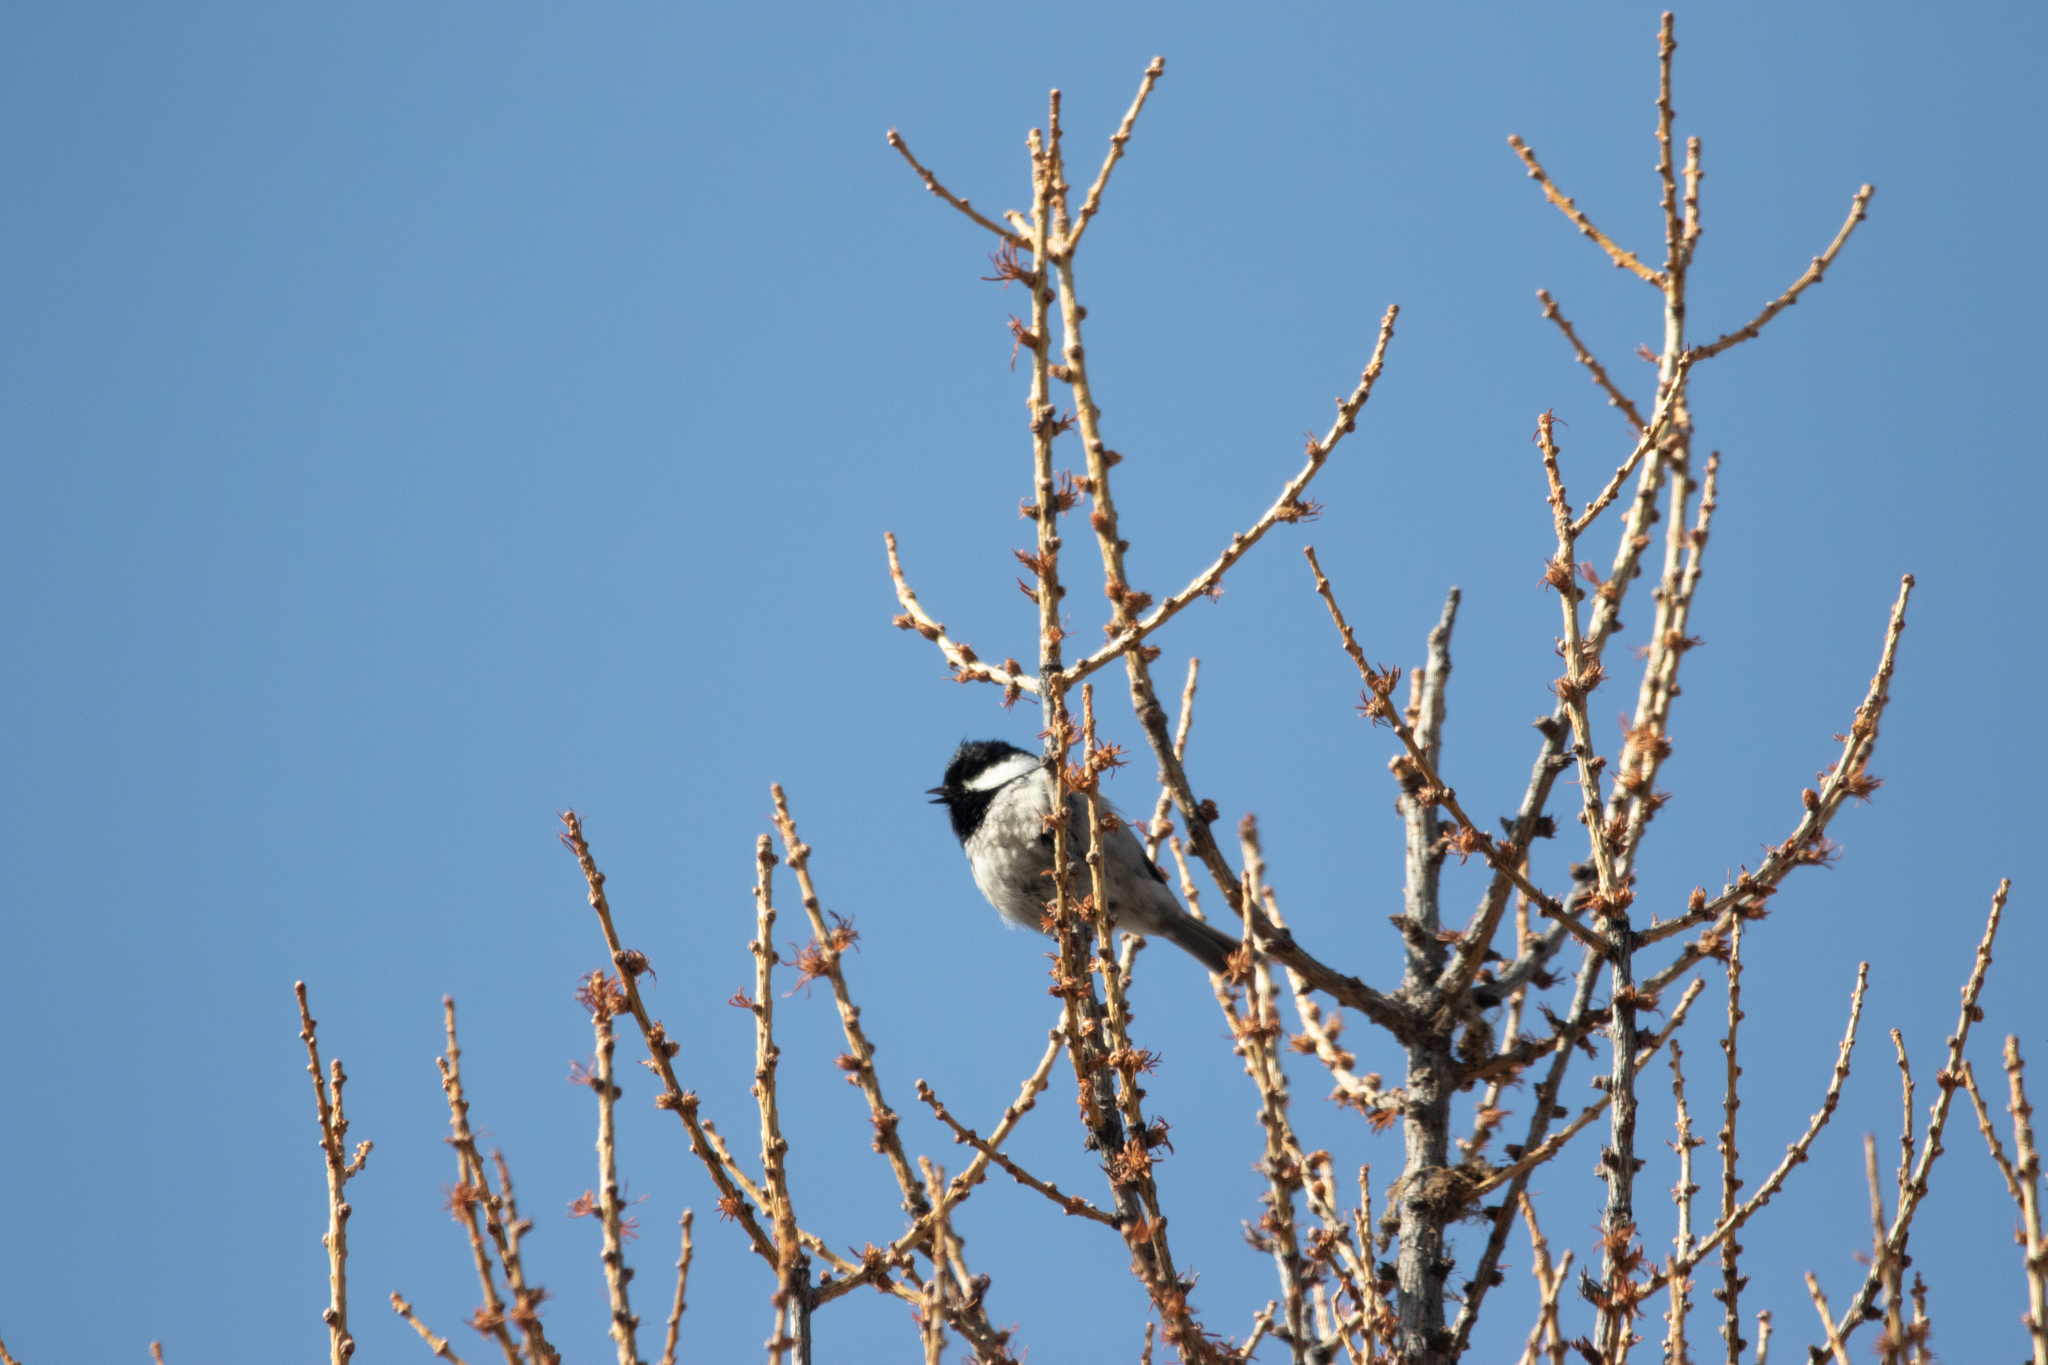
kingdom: Animalia
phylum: Chordata
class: Aves
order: Passeriformes
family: Paridae
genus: Periparus
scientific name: Periparus ater
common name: Coal tit
